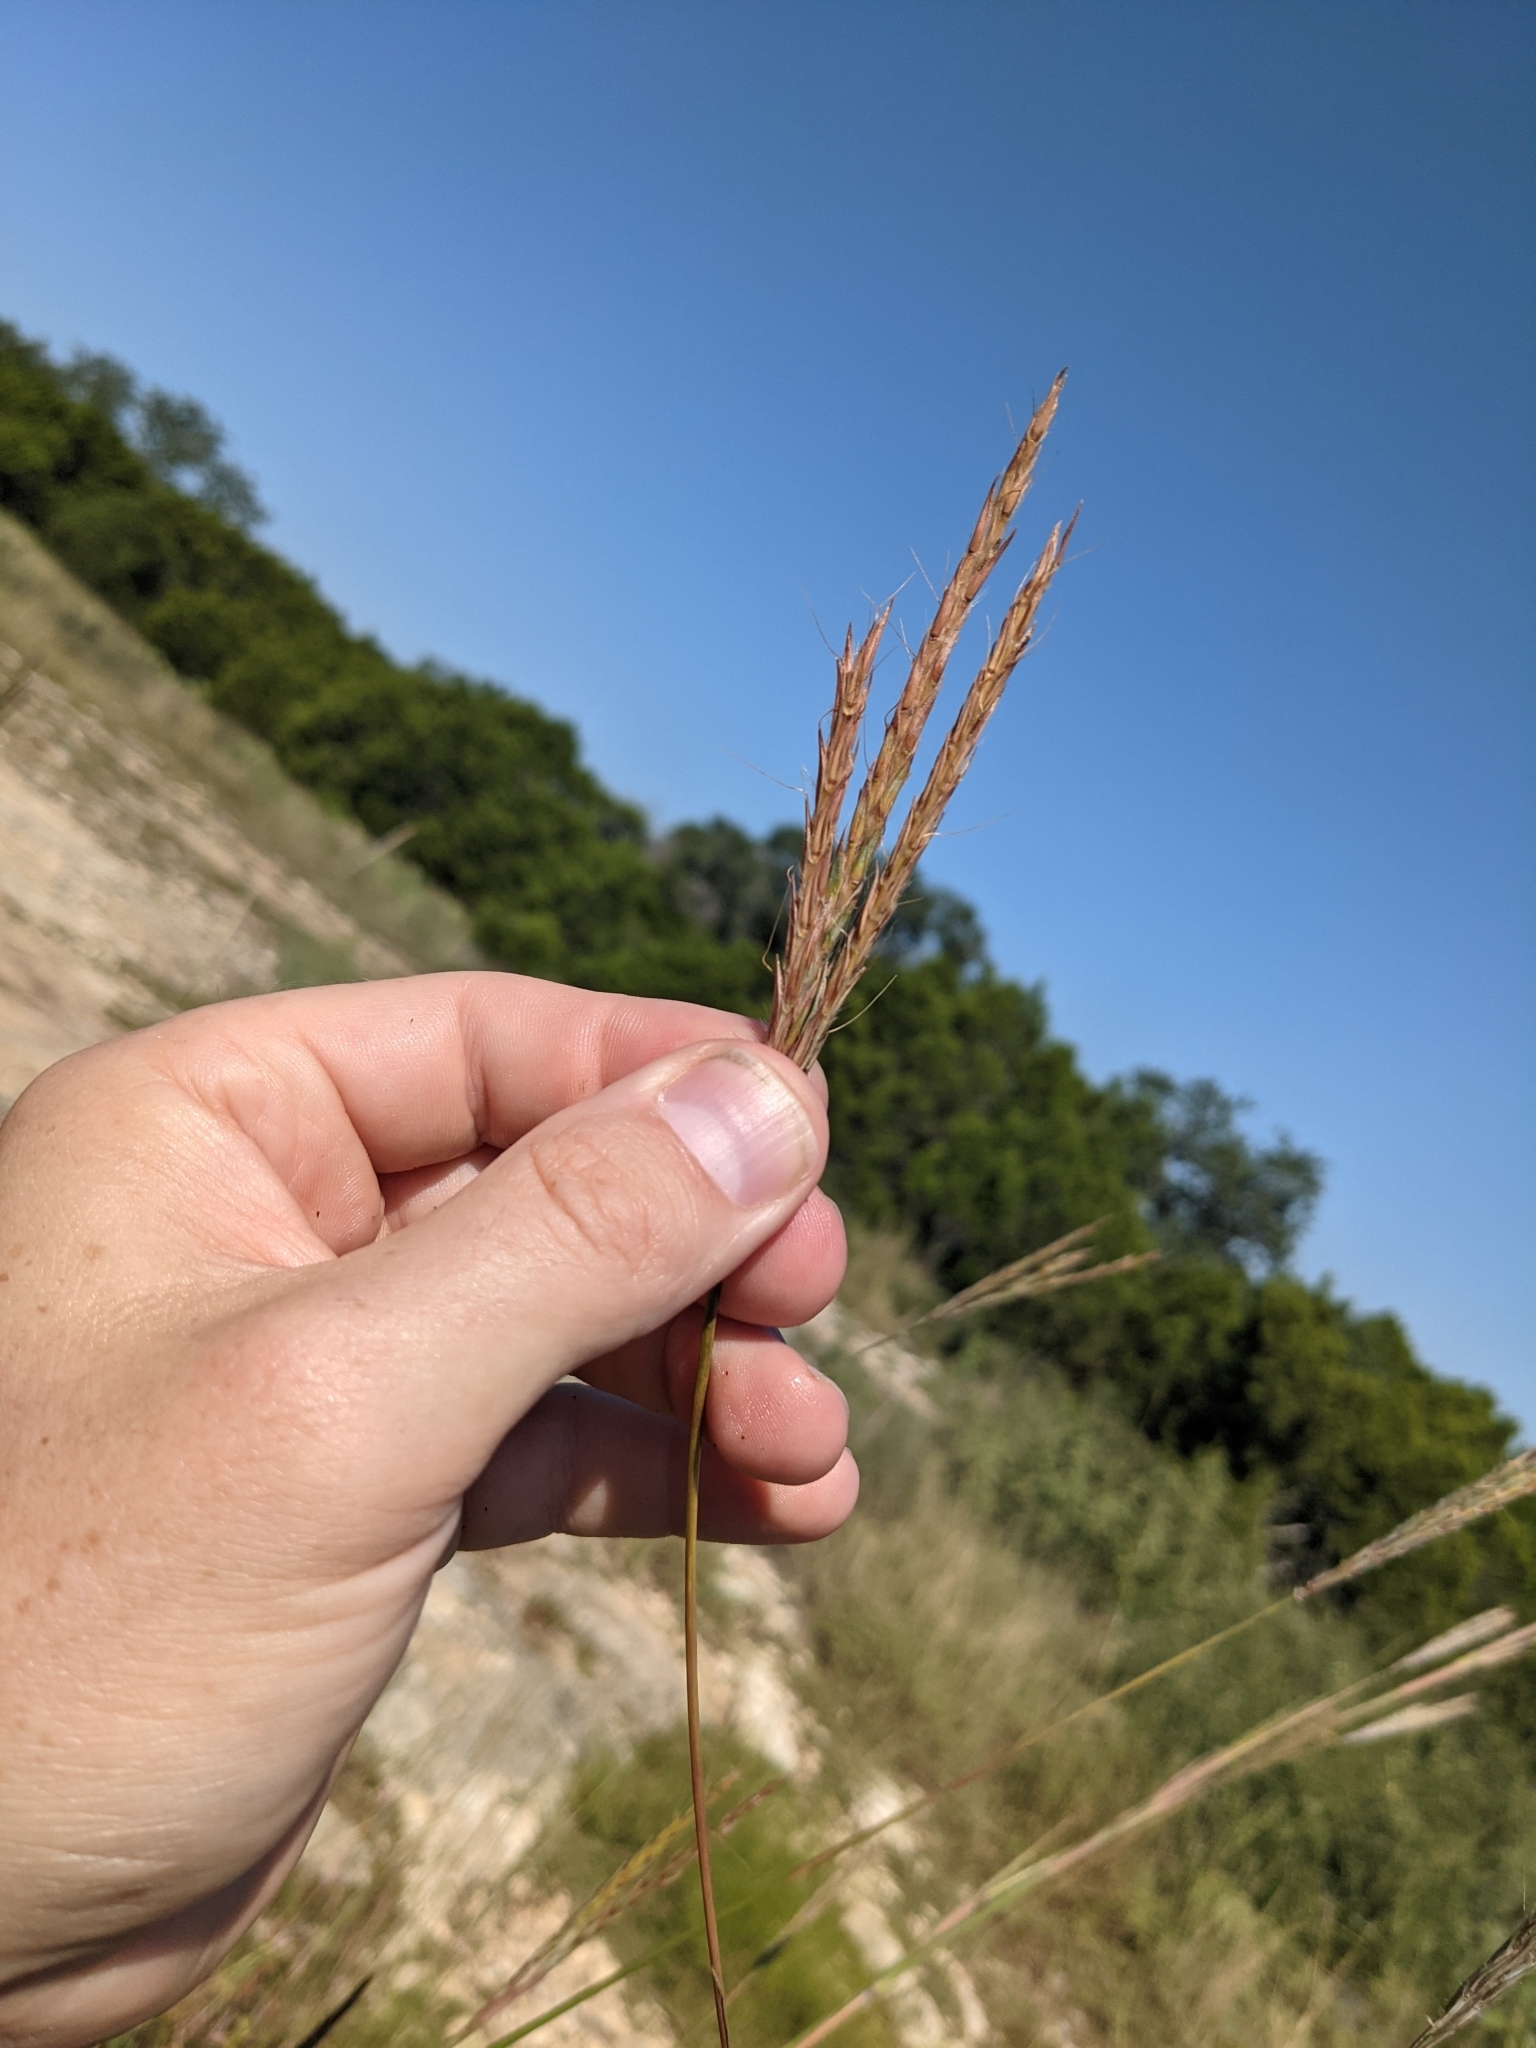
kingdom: Plantae
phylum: Tracheophyta
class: Liliopsida
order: Poales
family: Poaceae
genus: Andropogon
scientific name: Andropogon gerardi
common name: Big bluestem
